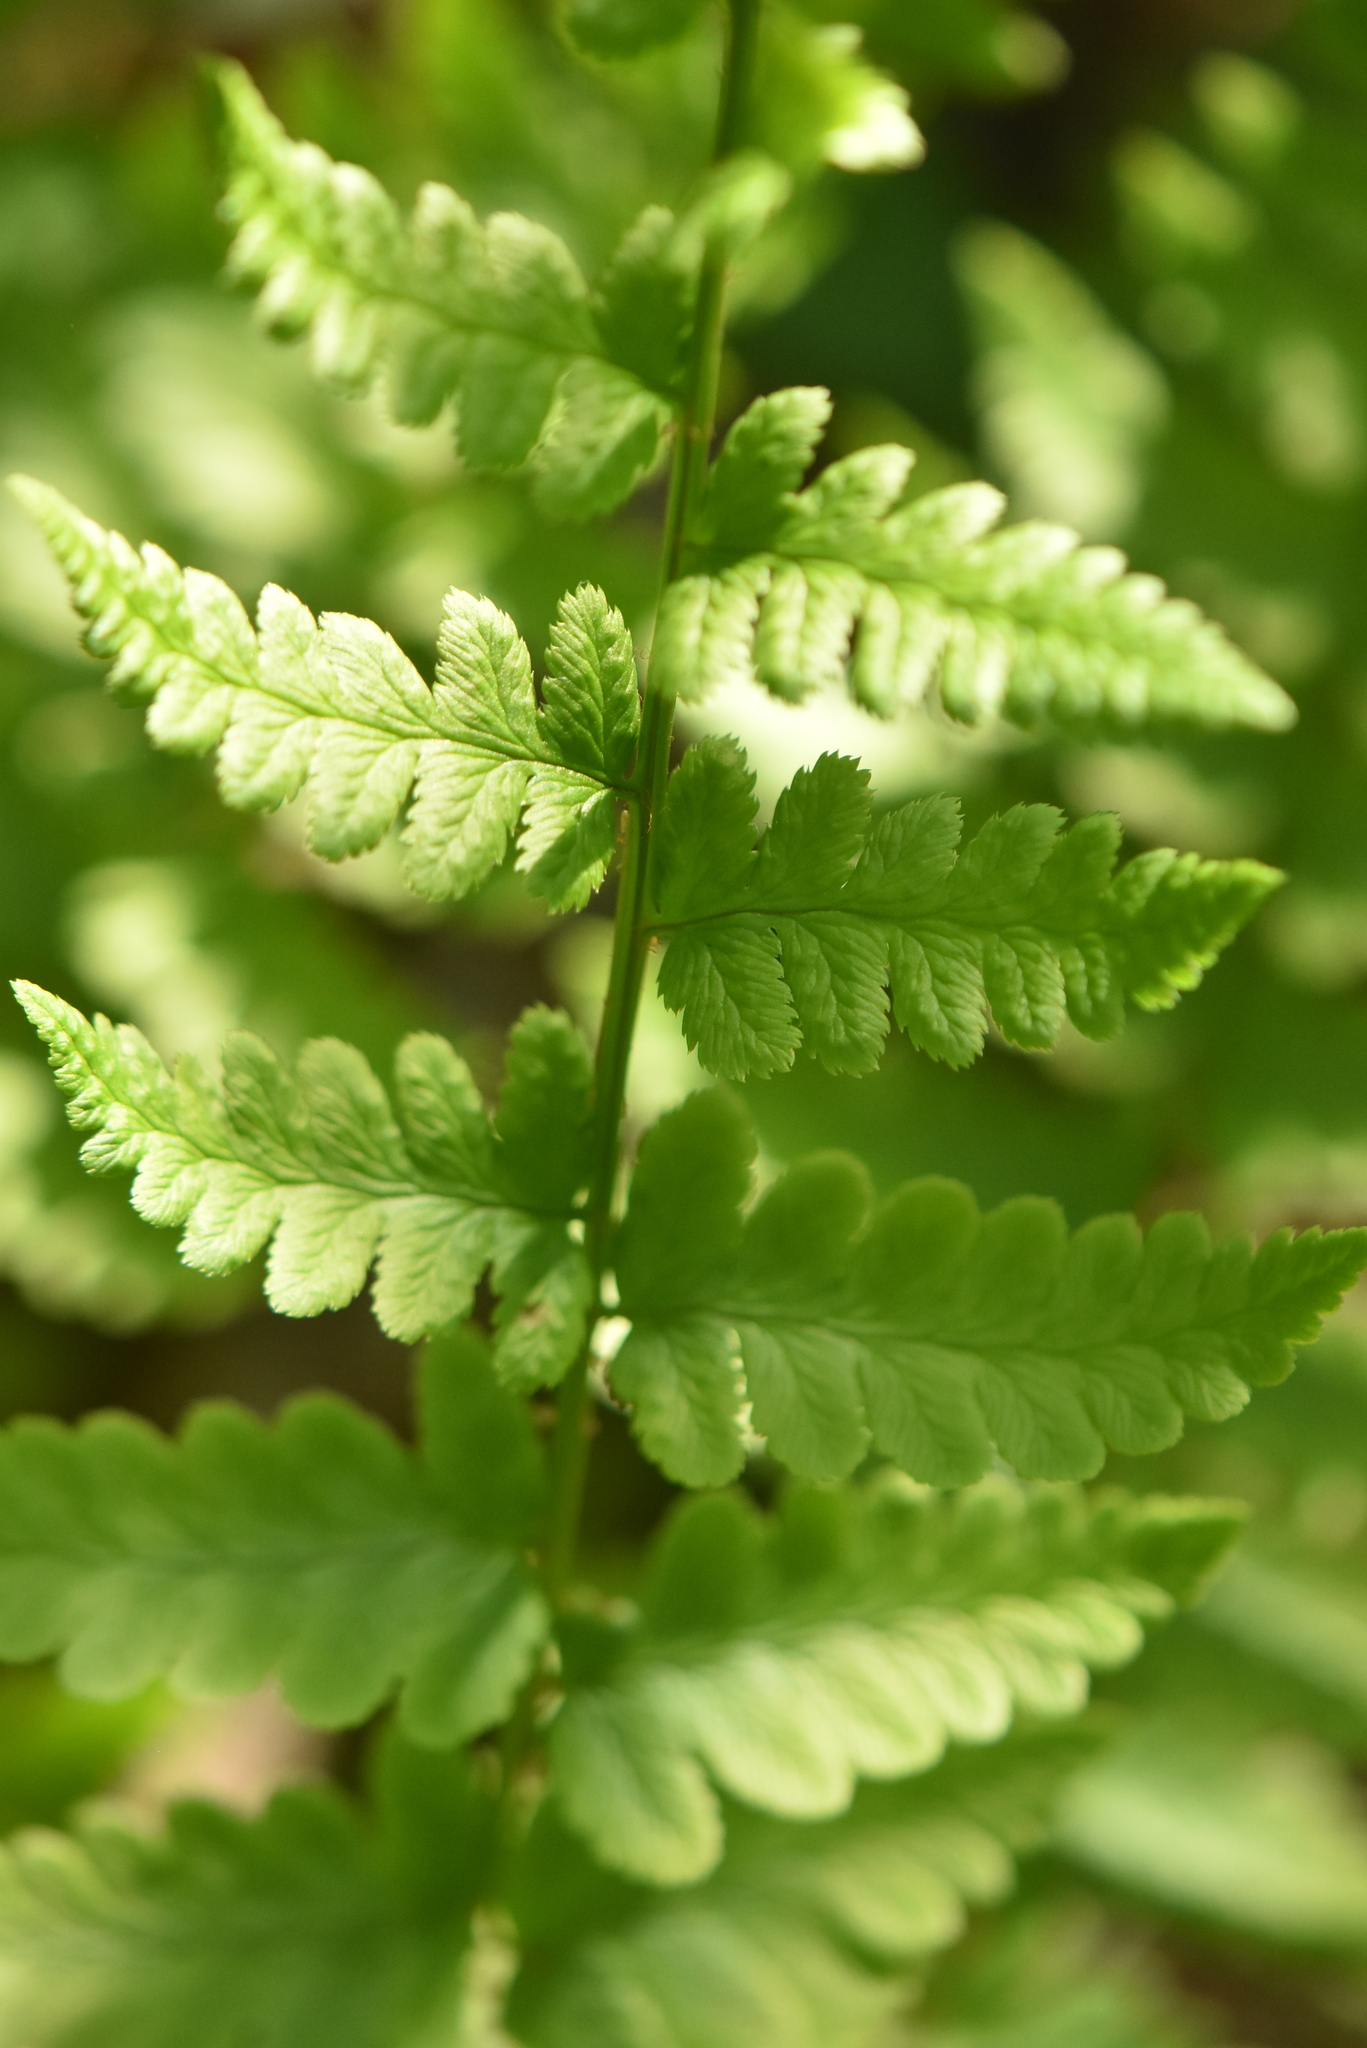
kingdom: Plantae
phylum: Tracheophyta
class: Polypodiopsida
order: Polypodiales
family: Dryopteridaceae
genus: Dryopteris
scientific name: Dryopteris cristata
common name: Crested wood fern
